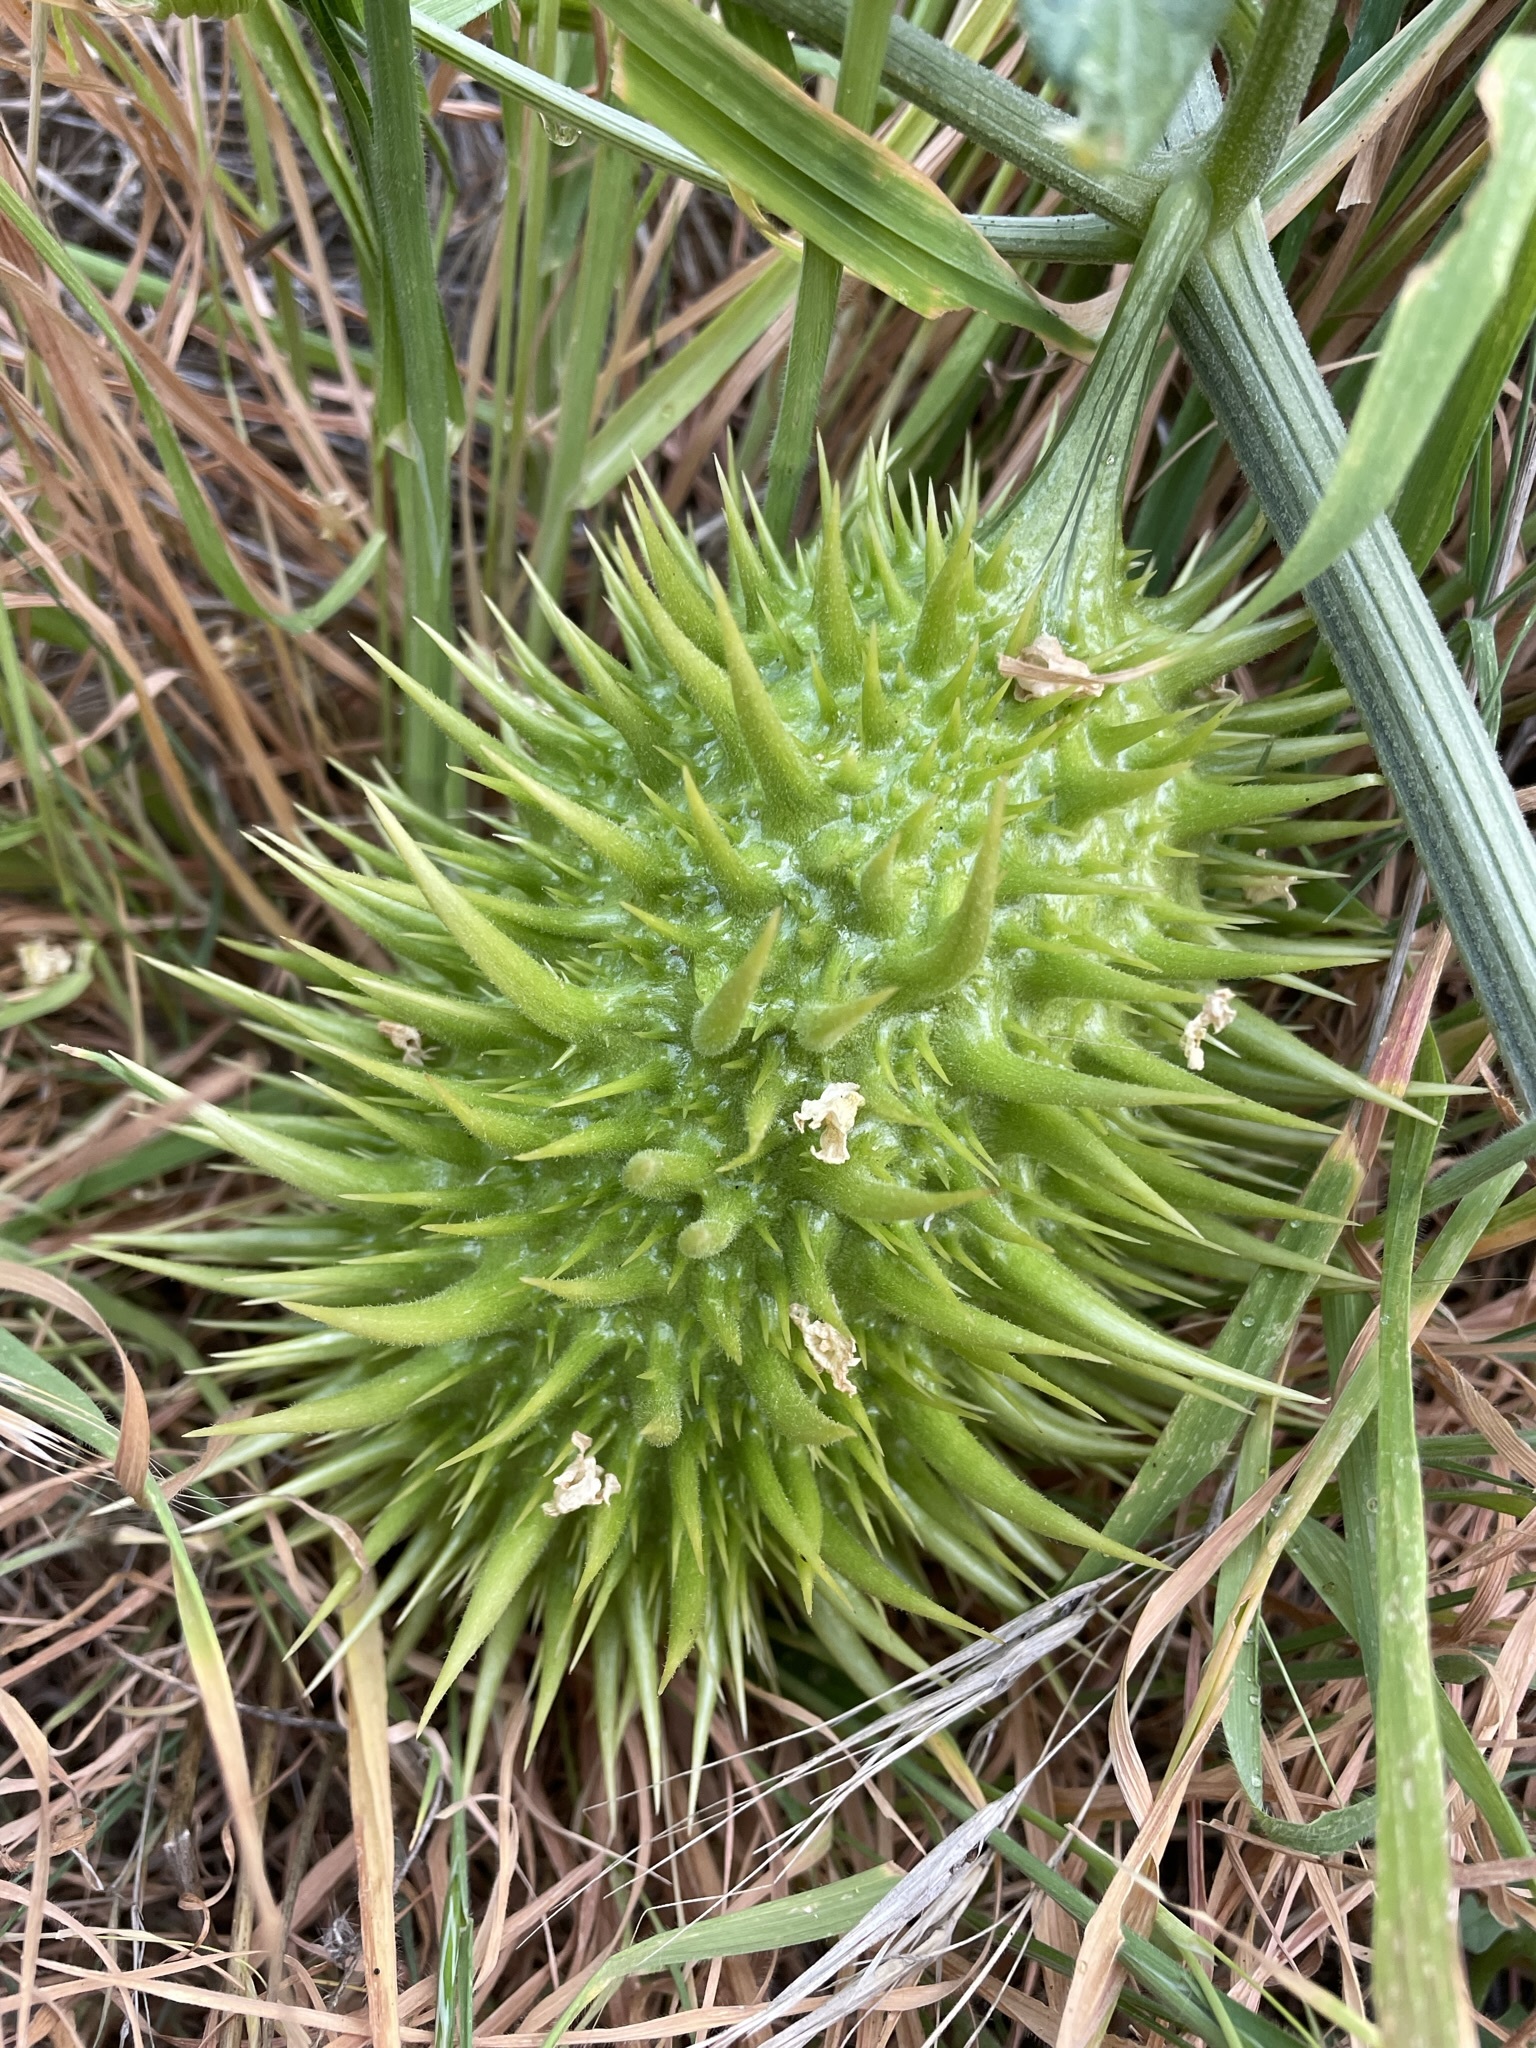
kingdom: Plantae
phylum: Tracheophyta
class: Magnoliopsida
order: Cucurbitales
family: Cucurbitaceae
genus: Marah
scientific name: Marah horrida
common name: Sierra manroot
